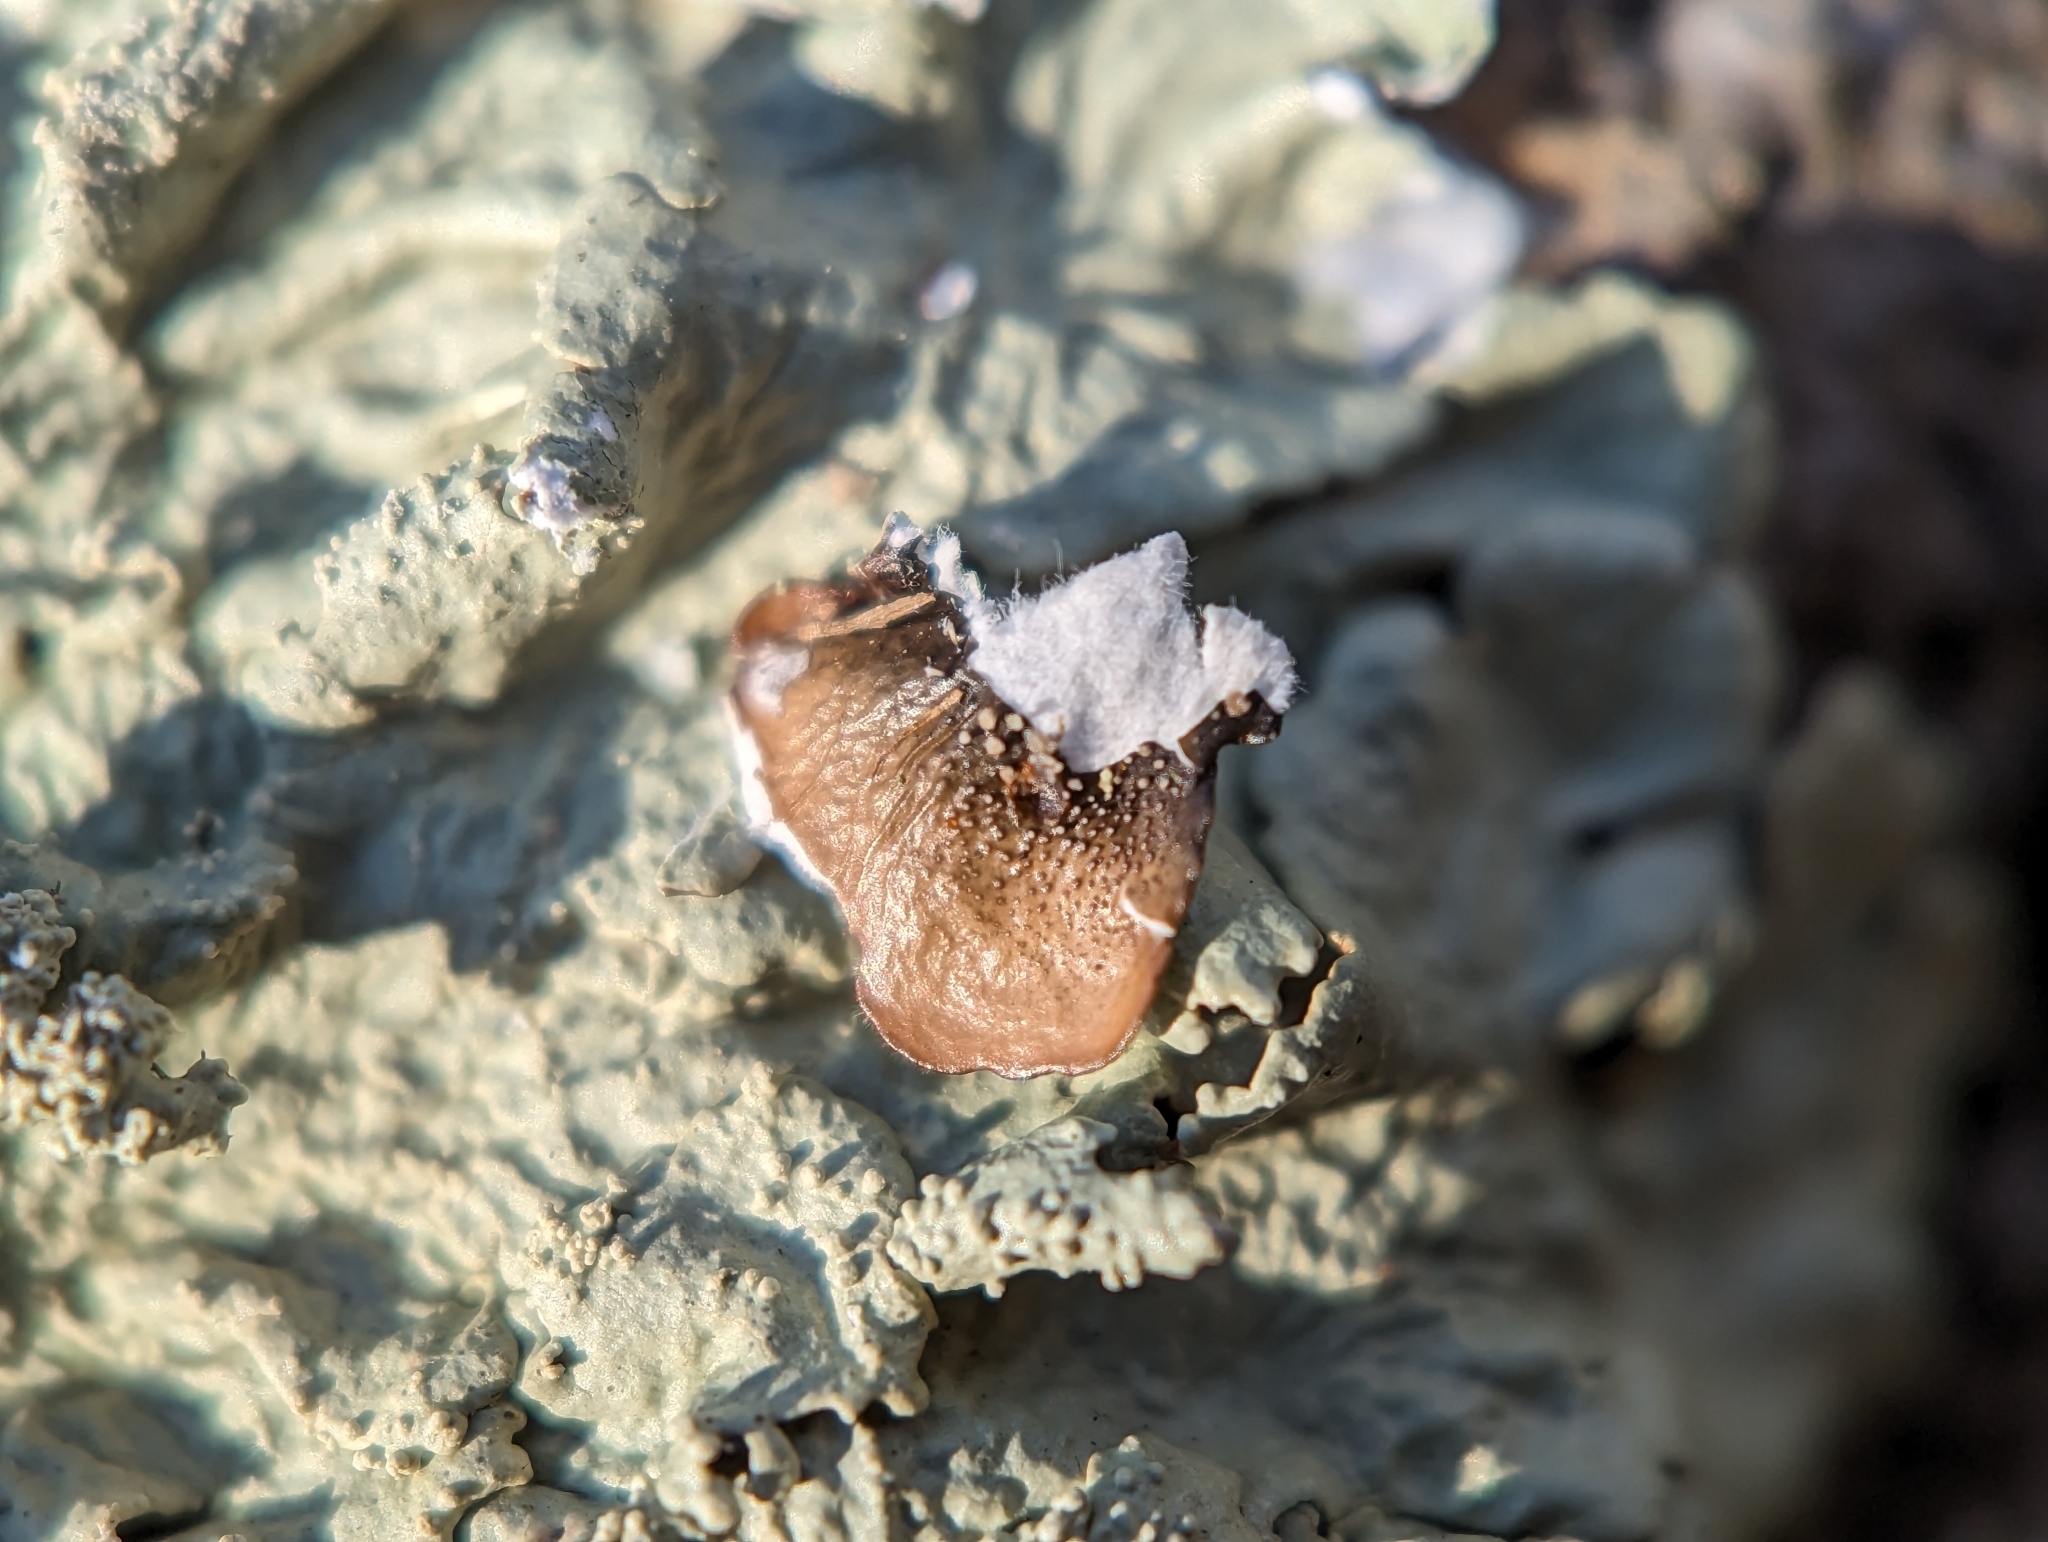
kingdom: Fungi
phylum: Ascomycota
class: Lecanoromycetes
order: Lecanorales
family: Parmeliaceae
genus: Flavoparmelia
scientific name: Flavoparmelia baltimorensis
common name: Rock greenshield
